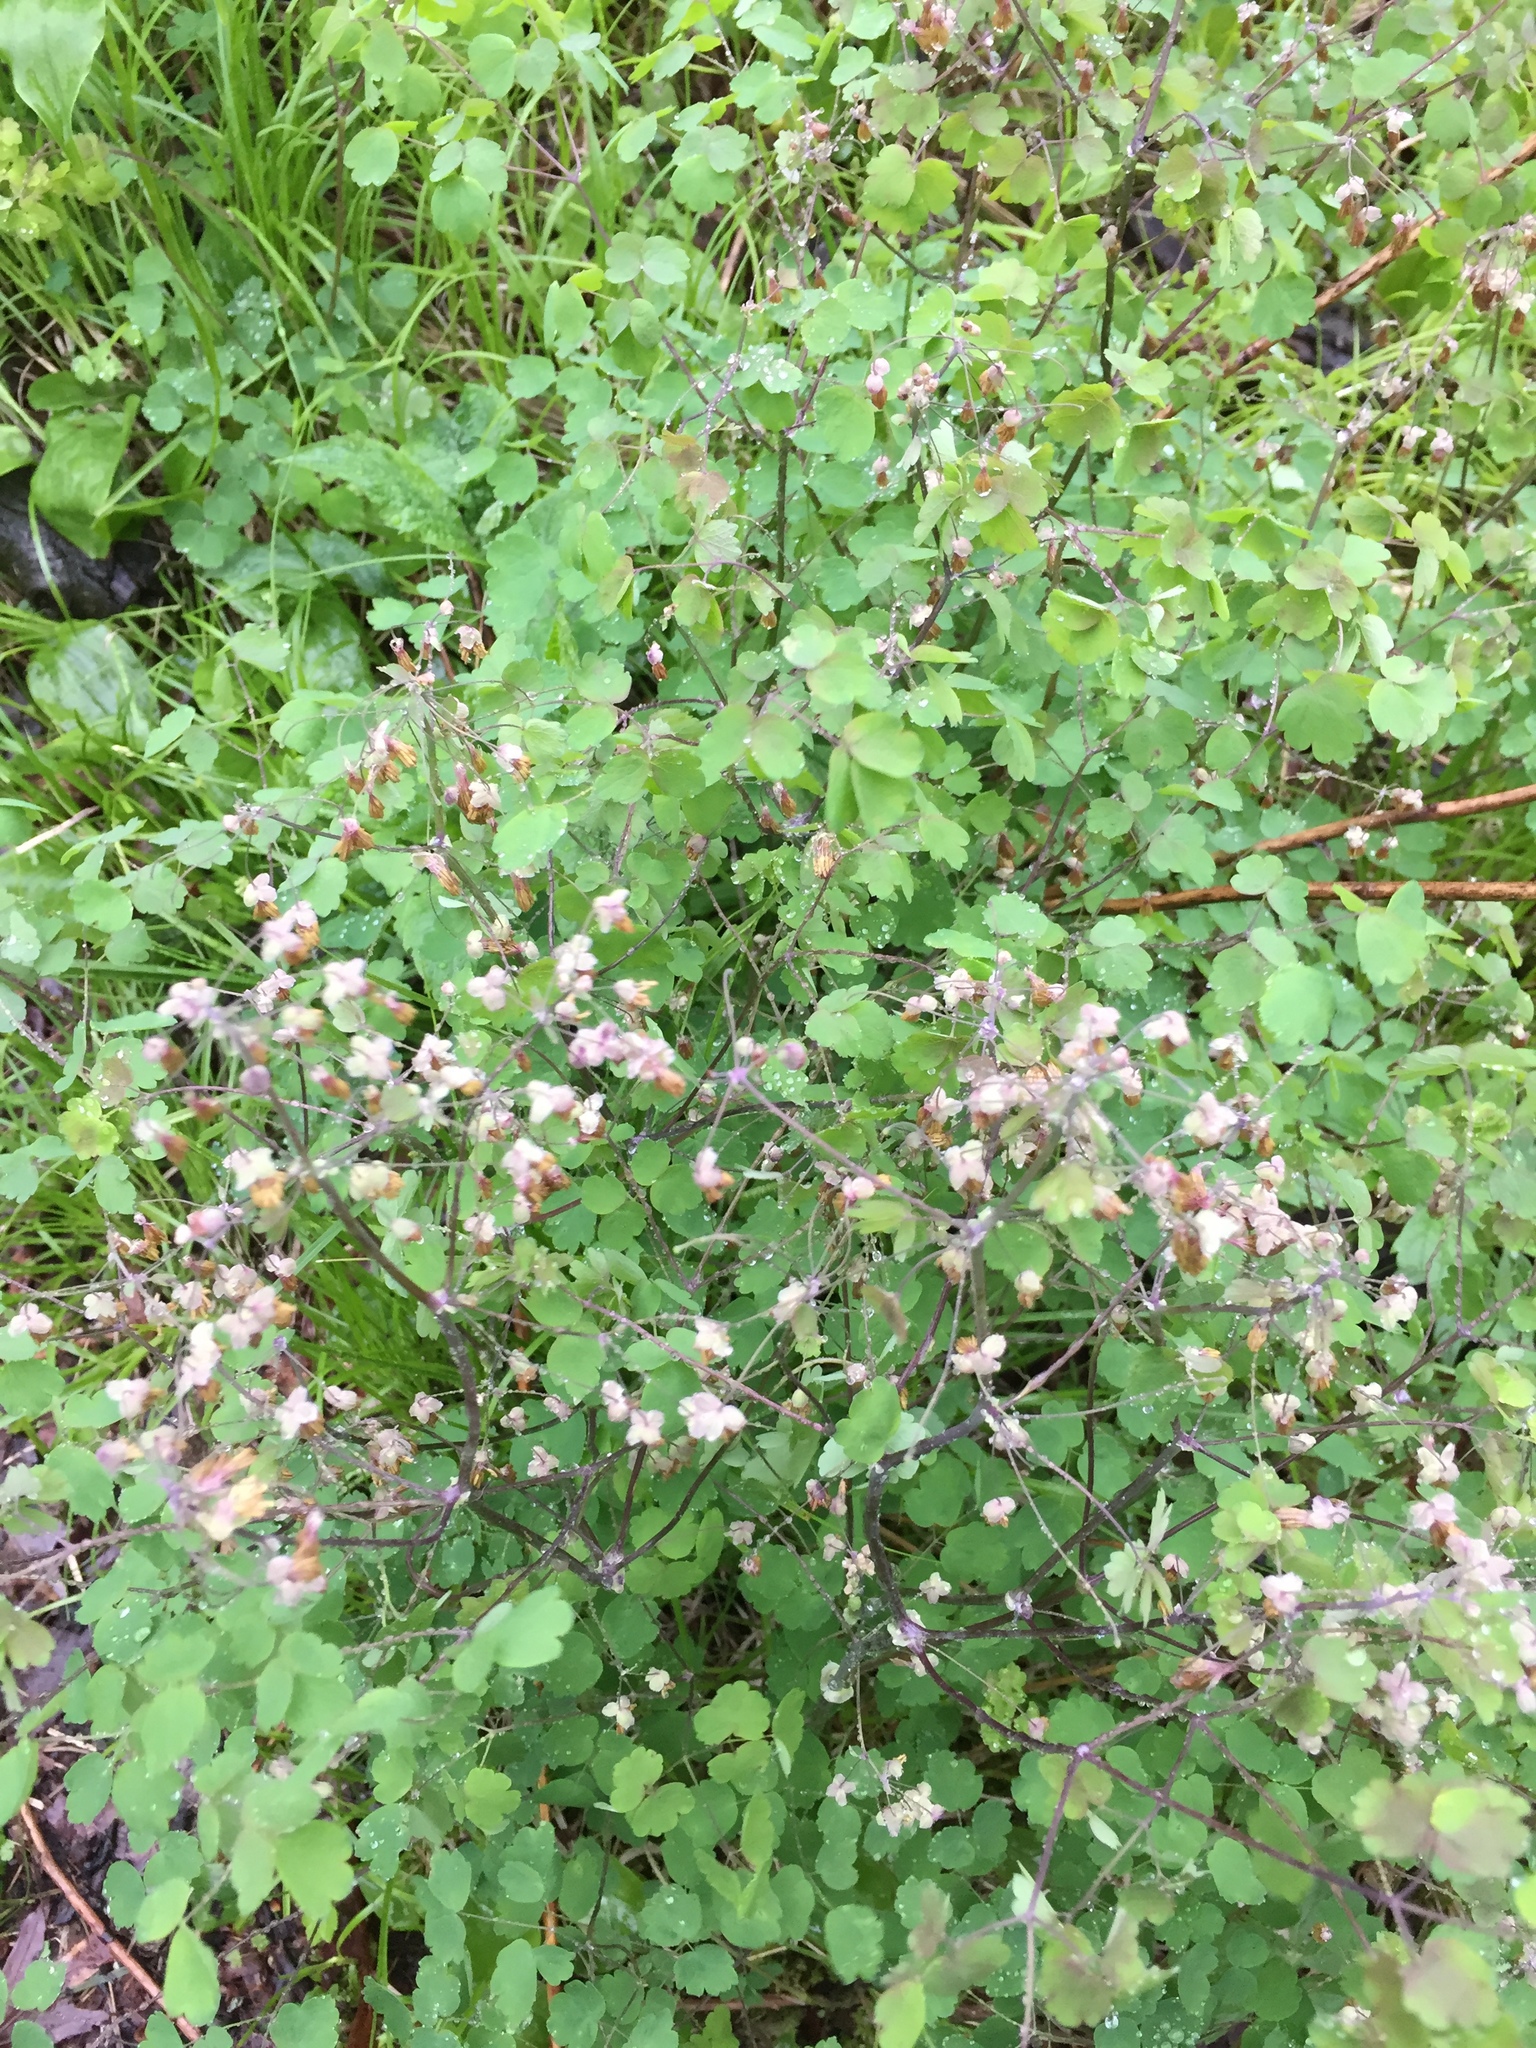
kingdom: Plantae
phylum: Tracheophyta
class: Magnoliopsida
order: Ranunculales
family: Ranunculaceae
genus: Thalictrum
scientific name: Thalictrum dioicum
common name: Early meadow-rue
